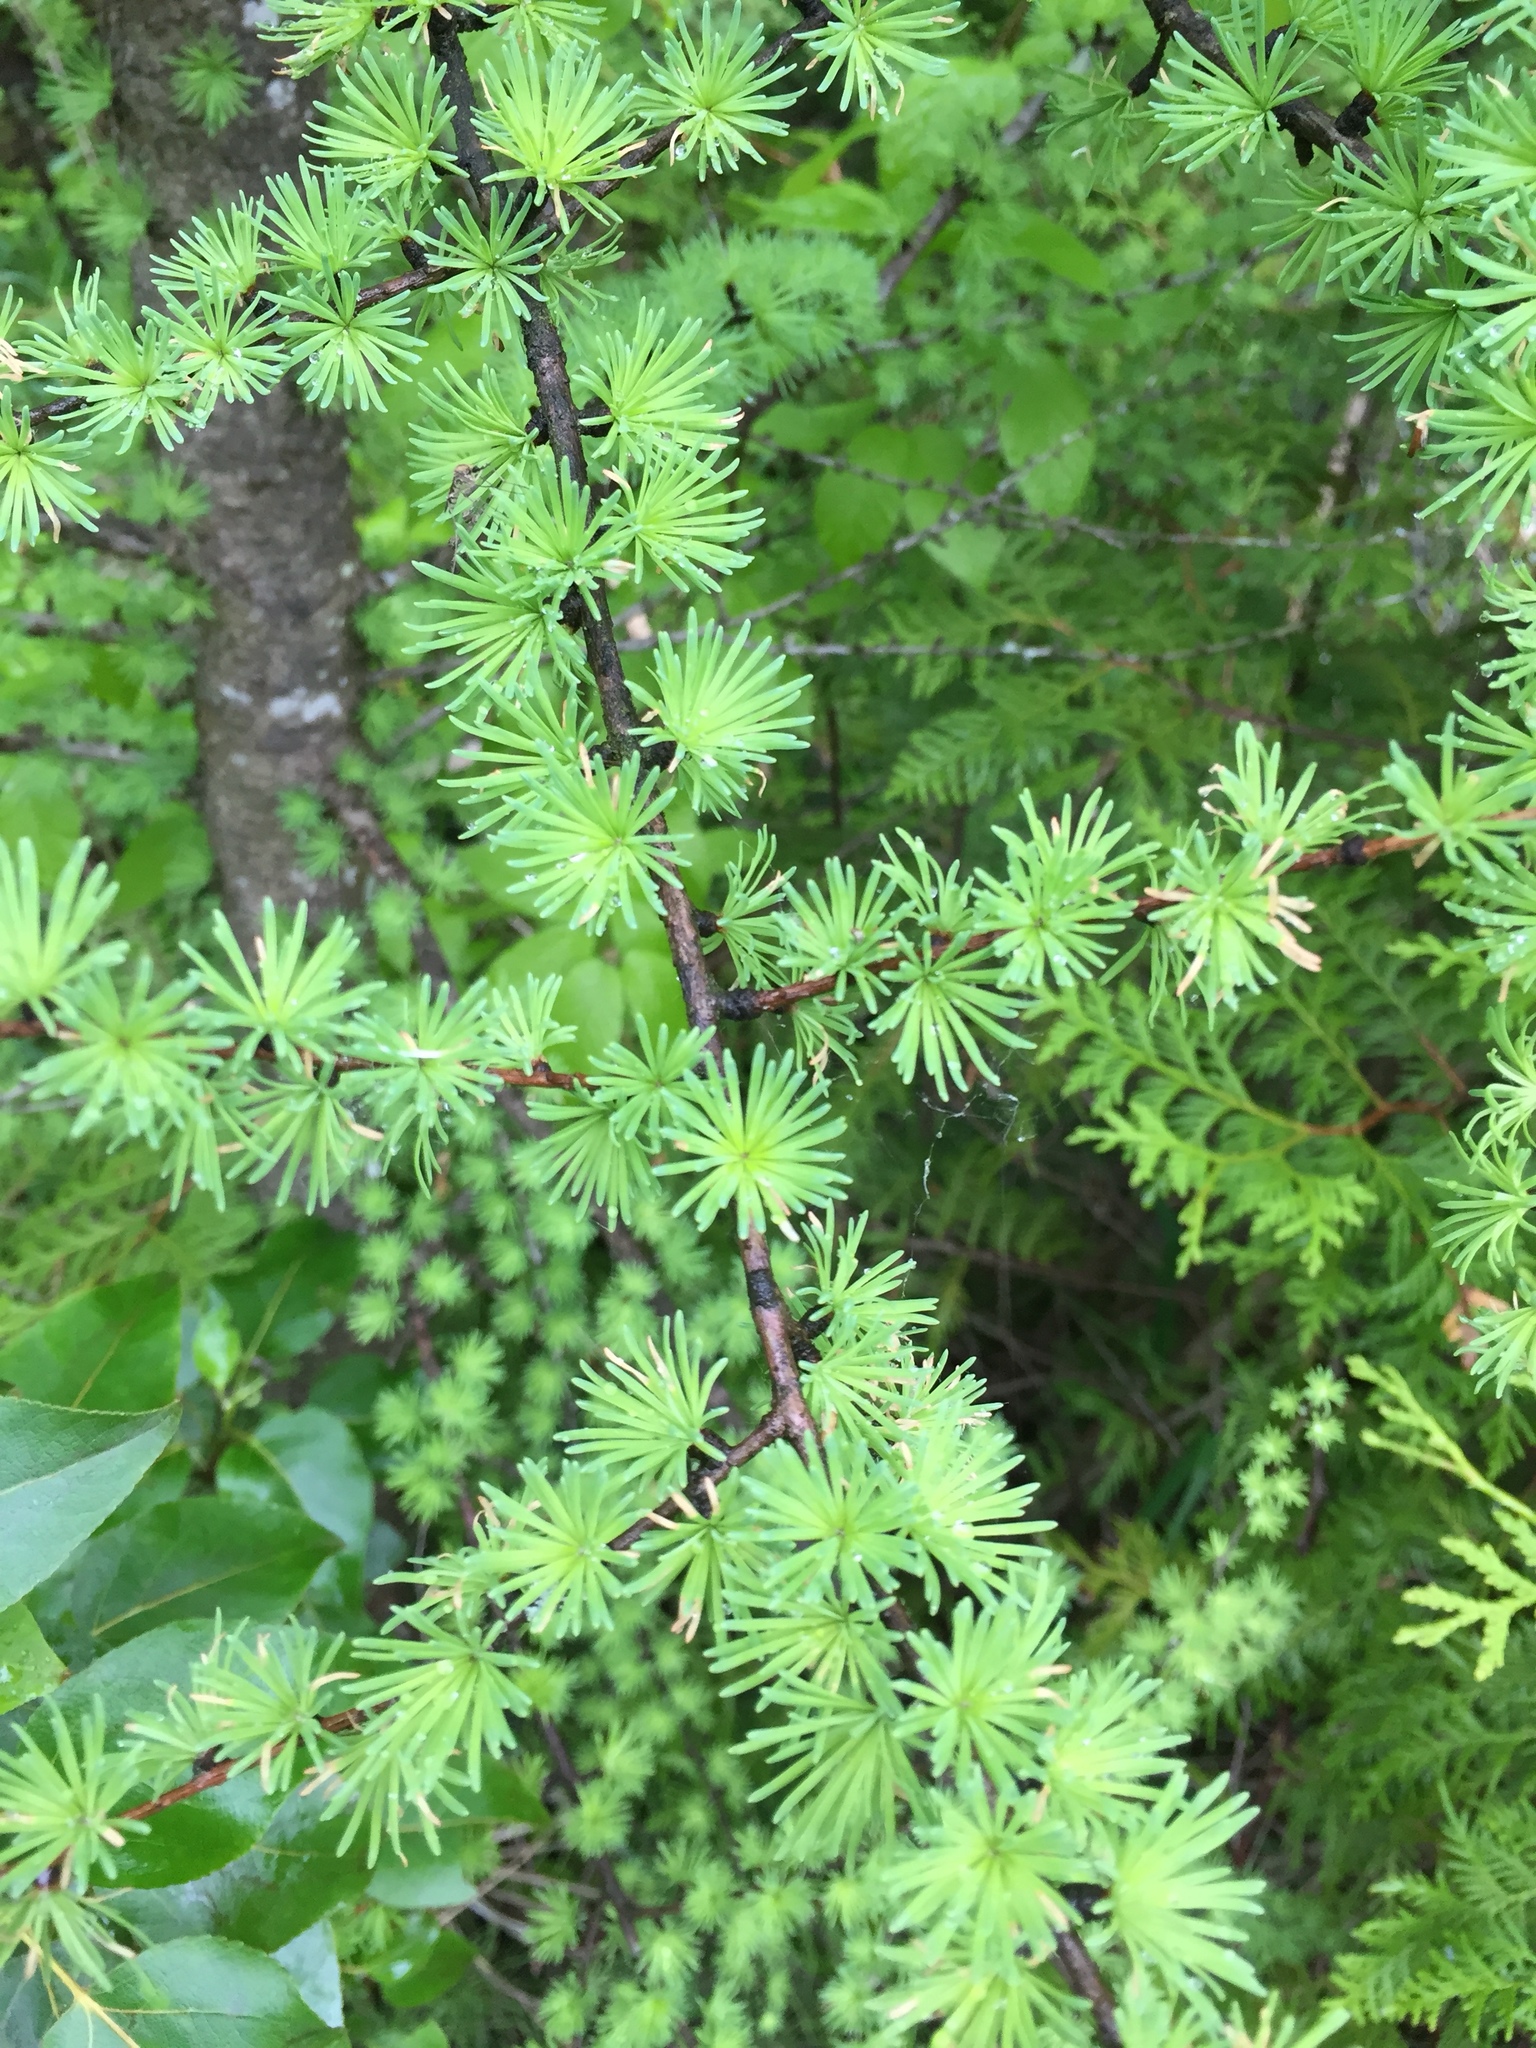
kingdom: Plantae
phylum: Tracheophyta
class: Pinopsida
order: Pinales
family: Pinaceae
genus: Larix
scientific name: Larix laricina
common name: American larch
